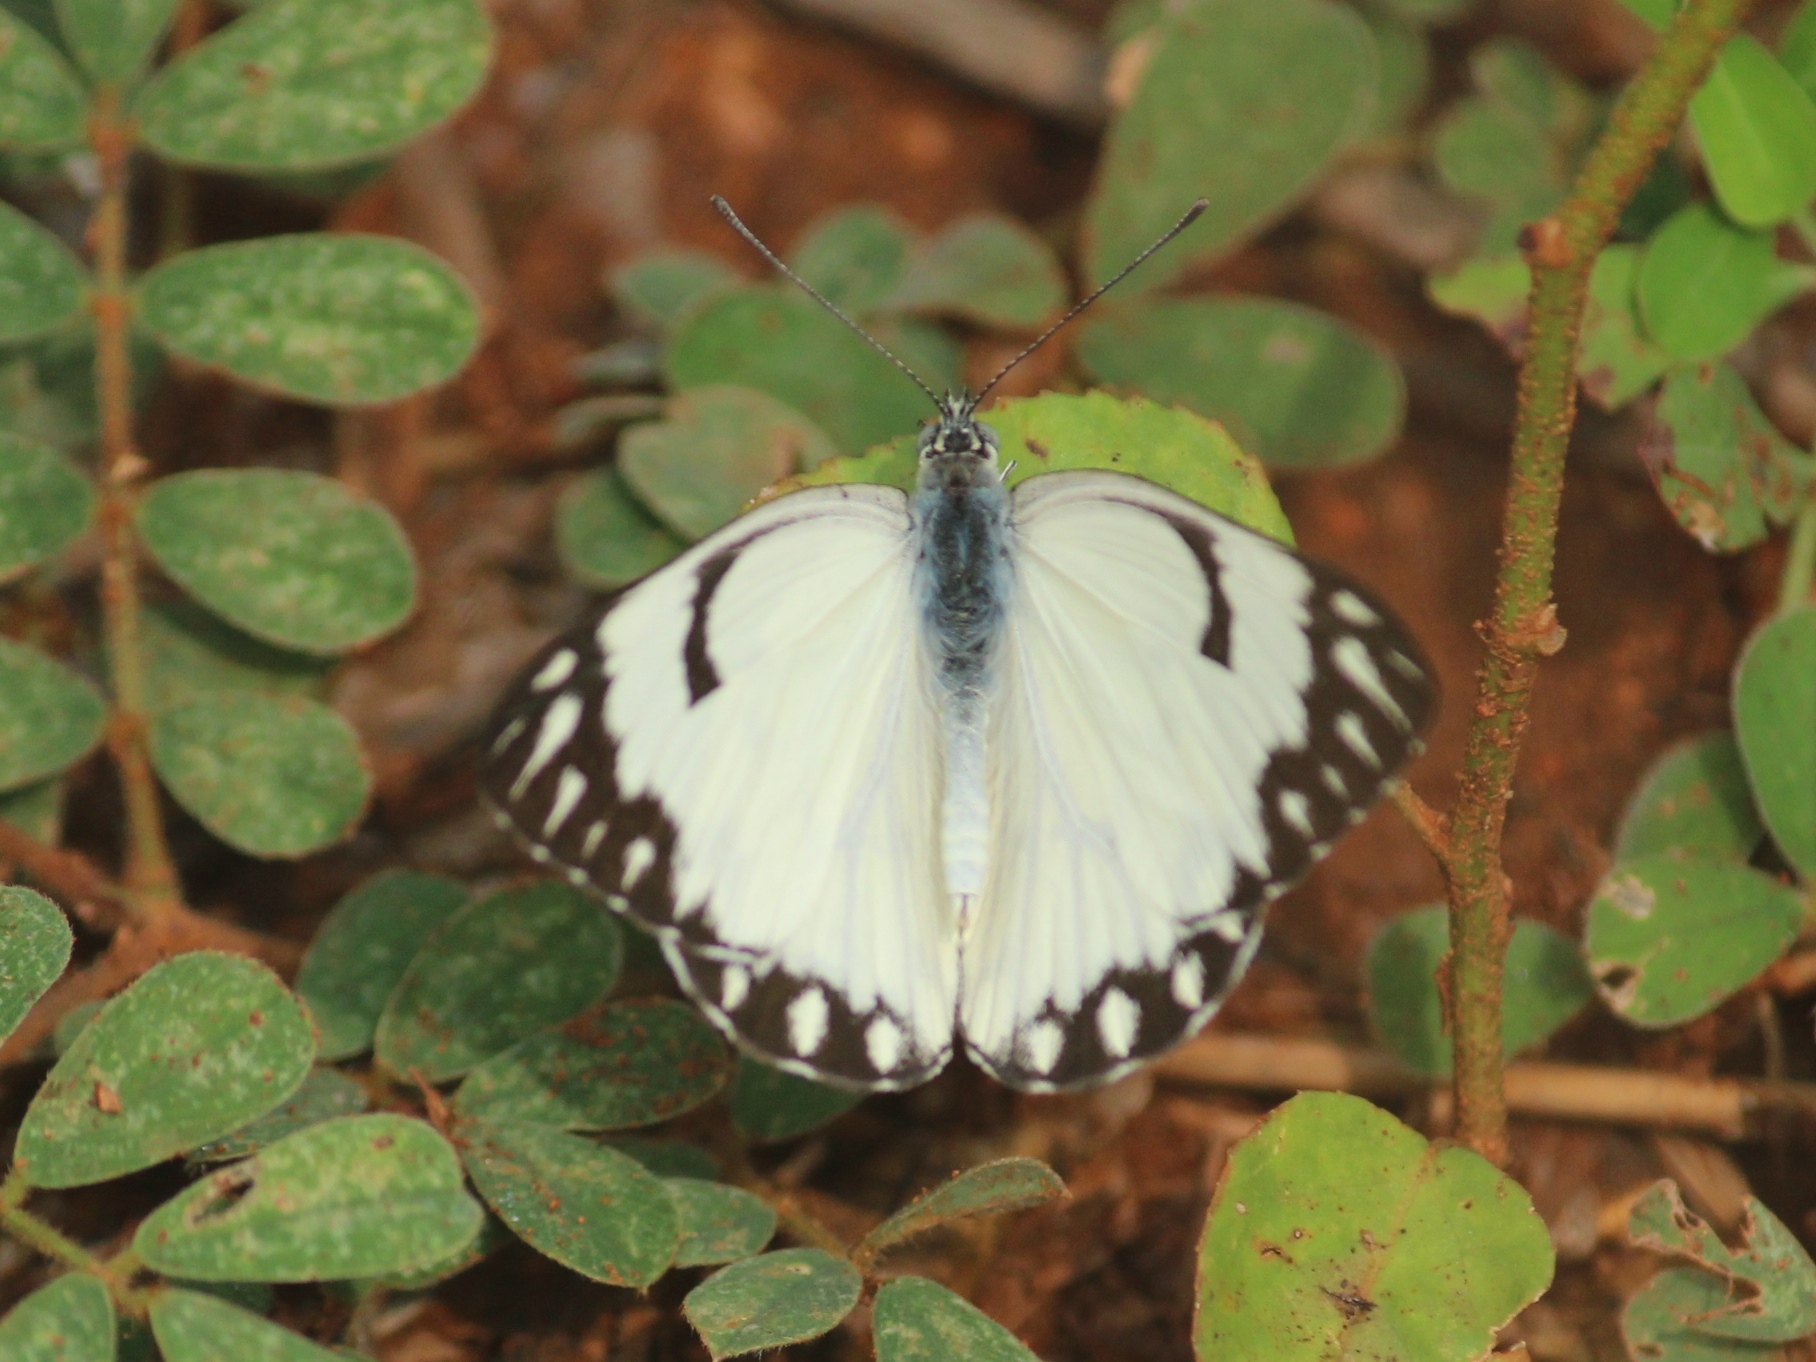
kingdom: Animalia
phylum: Arthropoda
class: Insecta
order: Lepidoptera
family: Pieridae
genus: Belenois
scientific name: Belenois aurota
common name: Brown-veined white
